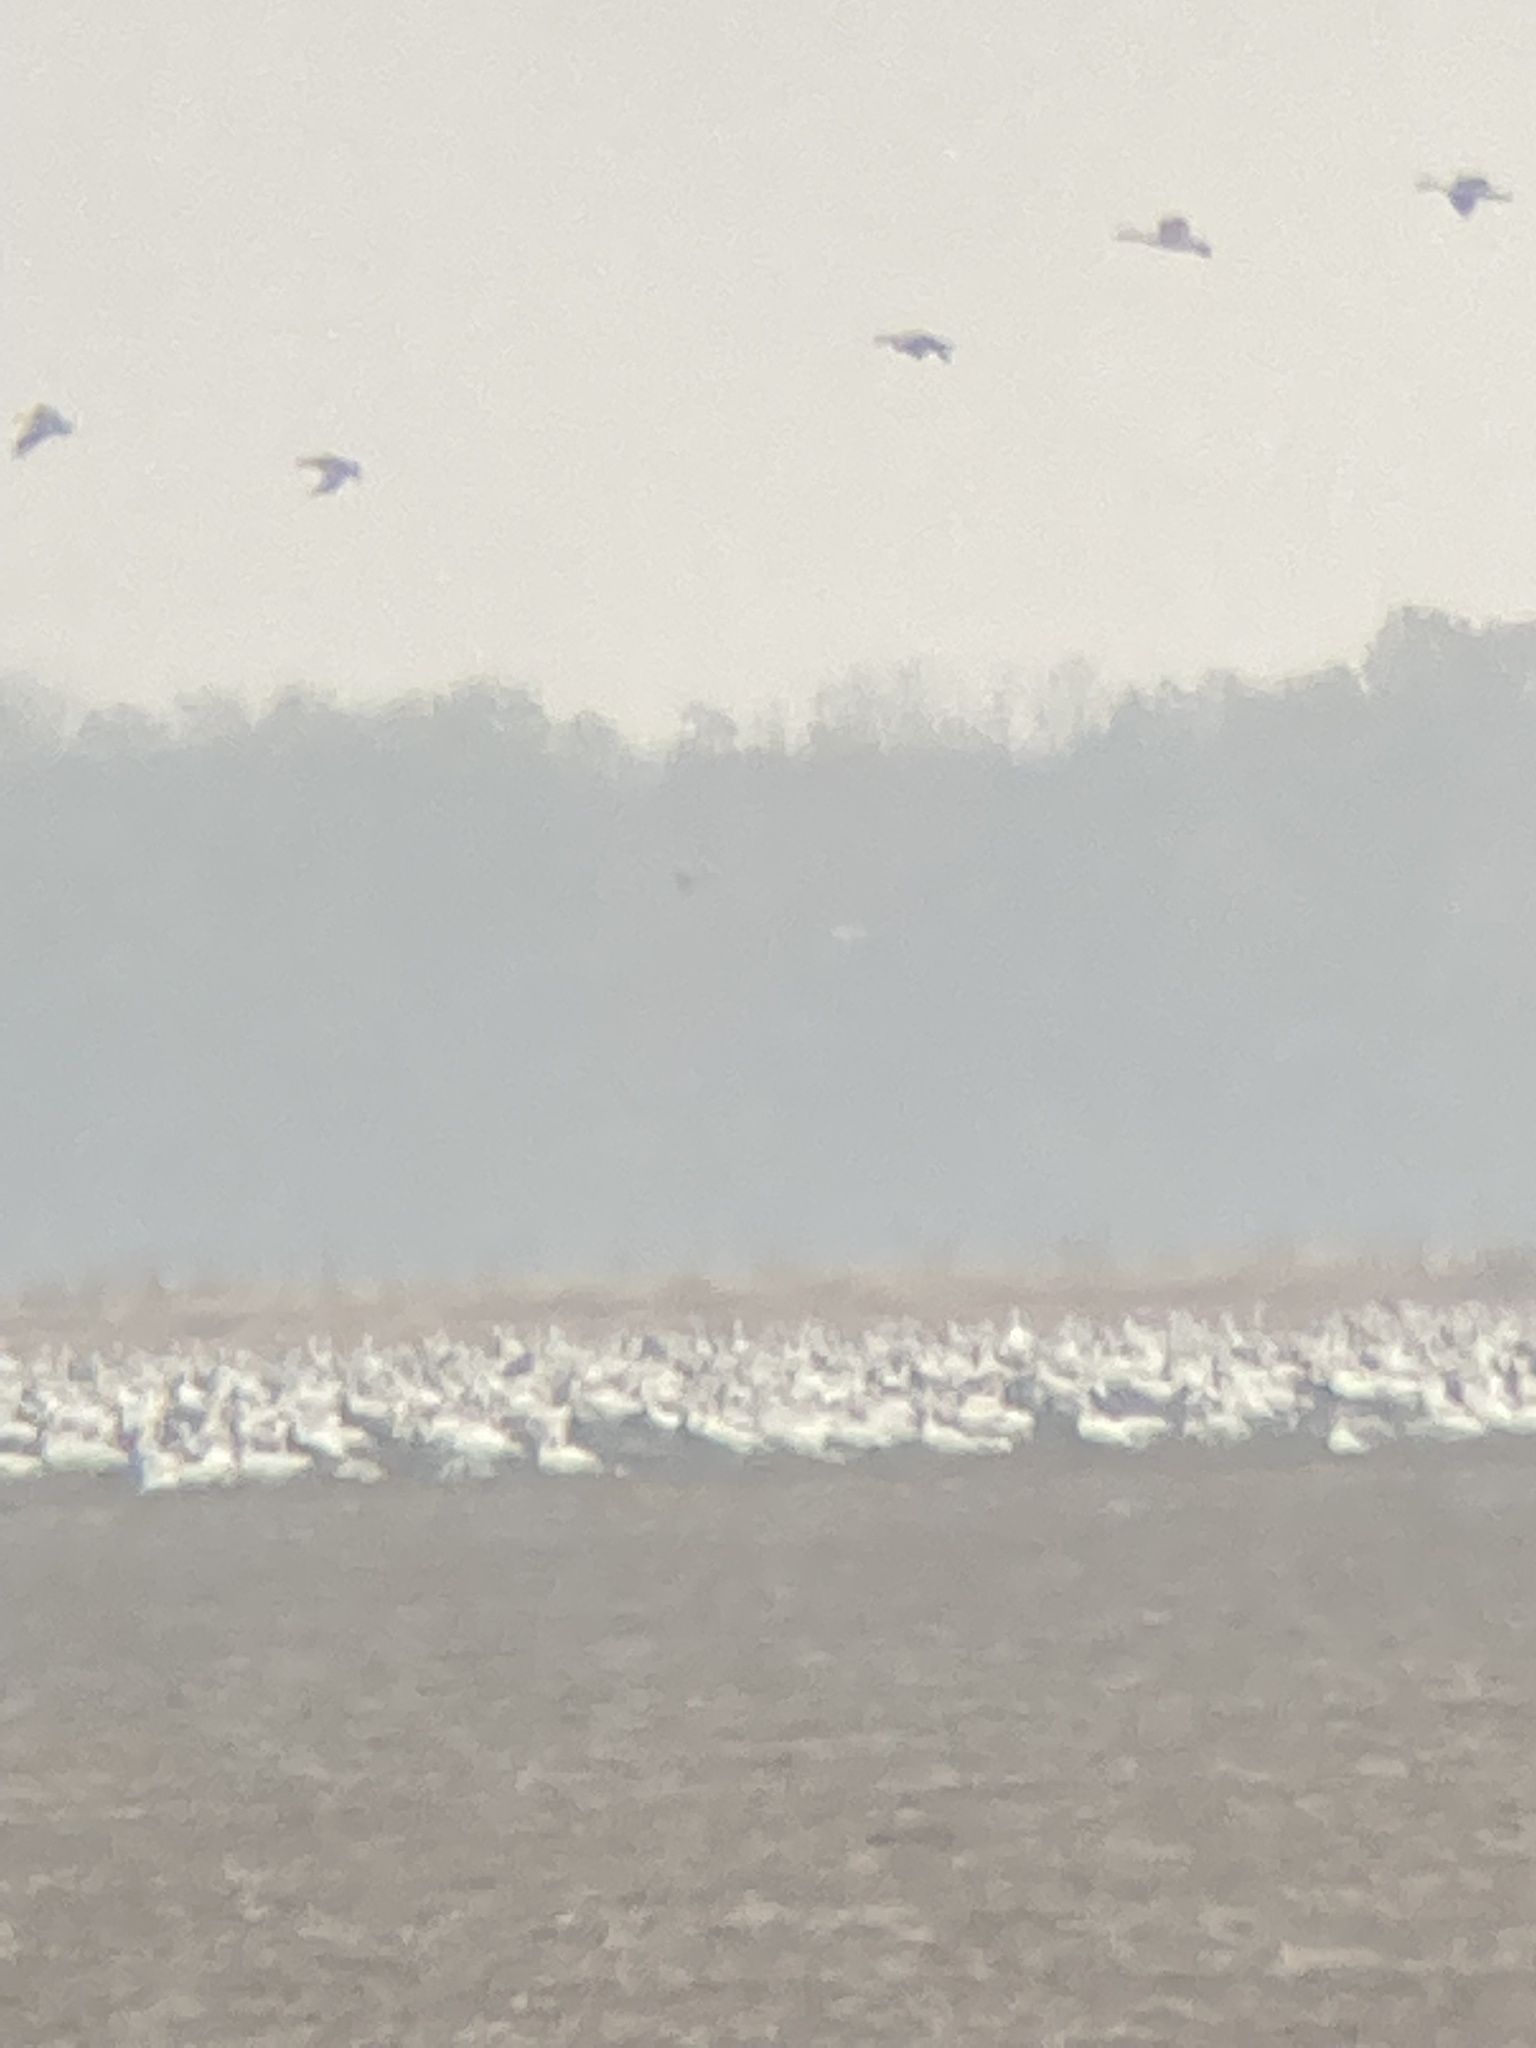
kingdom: Animalia
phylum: Chordata
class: Aves
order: Anseriformes
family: Anatidae
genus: Anser
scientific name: Anser caerulescens
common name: Snow goose
